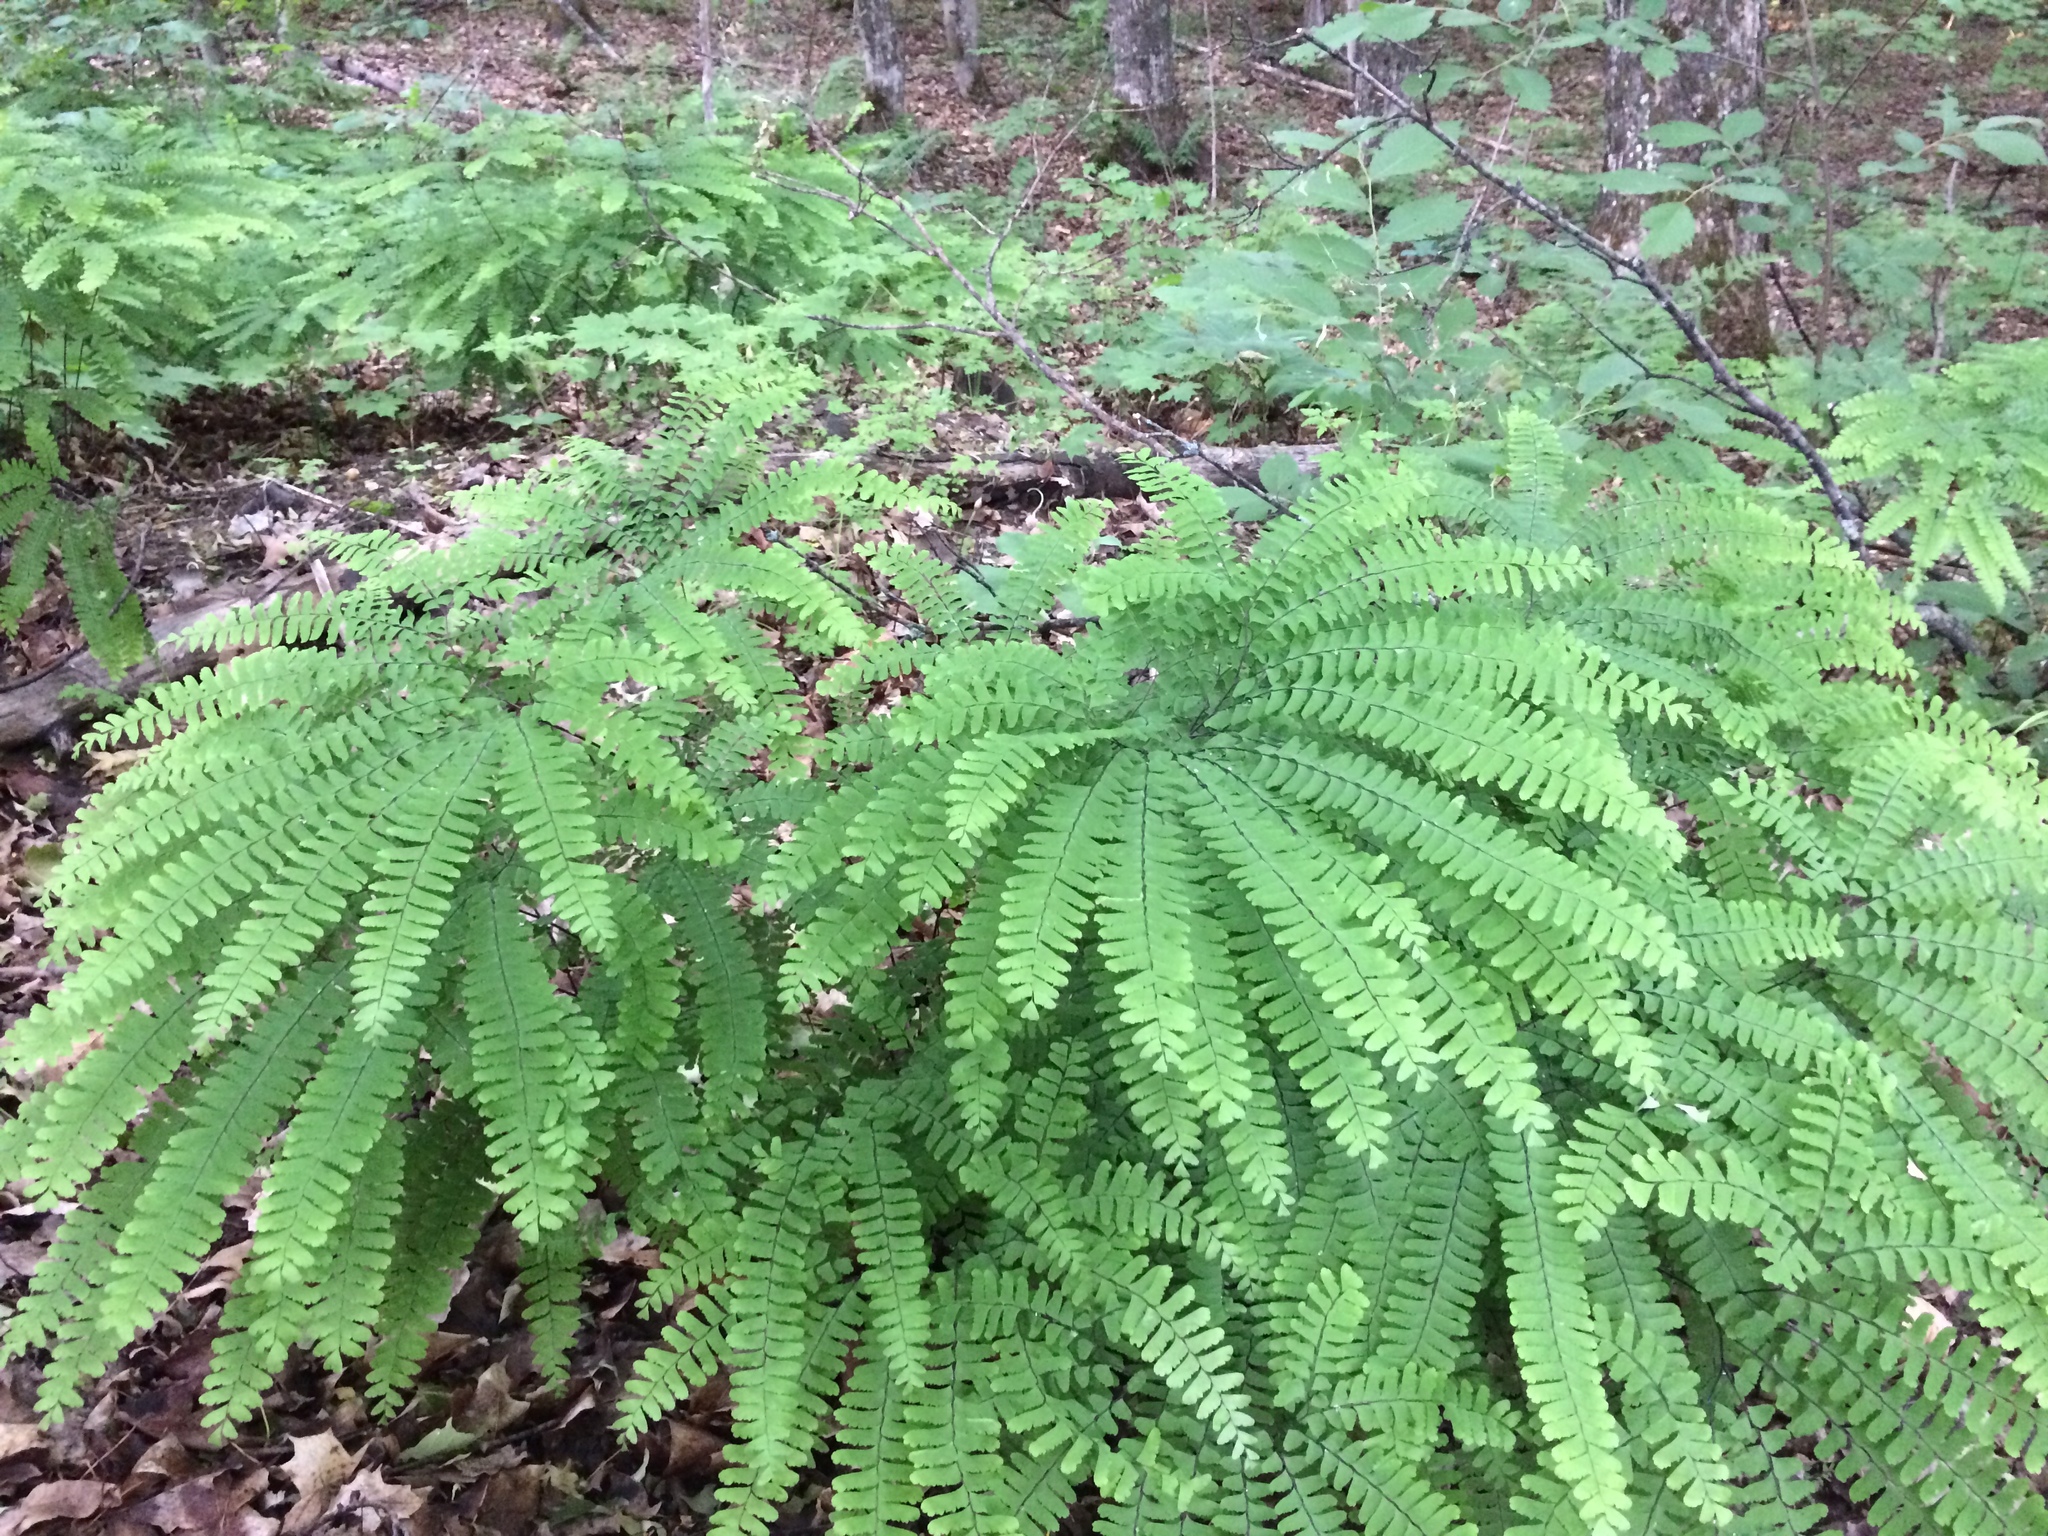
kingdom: Plantae
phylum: Tracheophyta
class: Polypodiopsida
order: Polypodiales
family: Pteridaceae
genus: Adiantum
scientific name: Adiantum pedatum
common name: Five-finger fern
